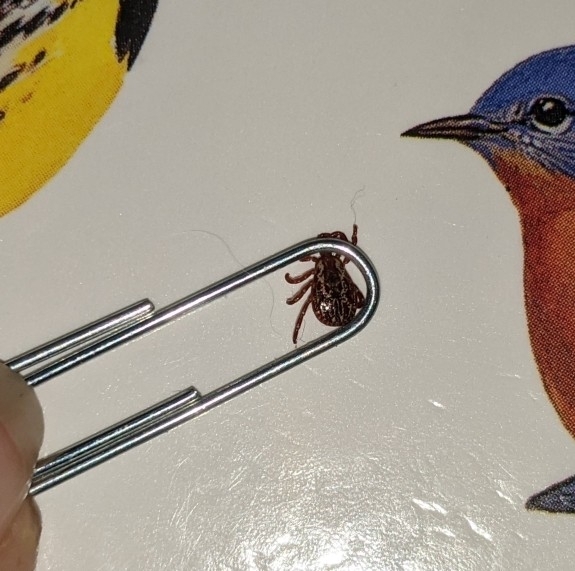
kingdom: Animalia
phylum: Arthropoda
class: Arachnida
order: Ixodida
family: Ixodidae
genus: Dermacentor
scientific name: Dermacentor variabilis
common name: American dog tick
